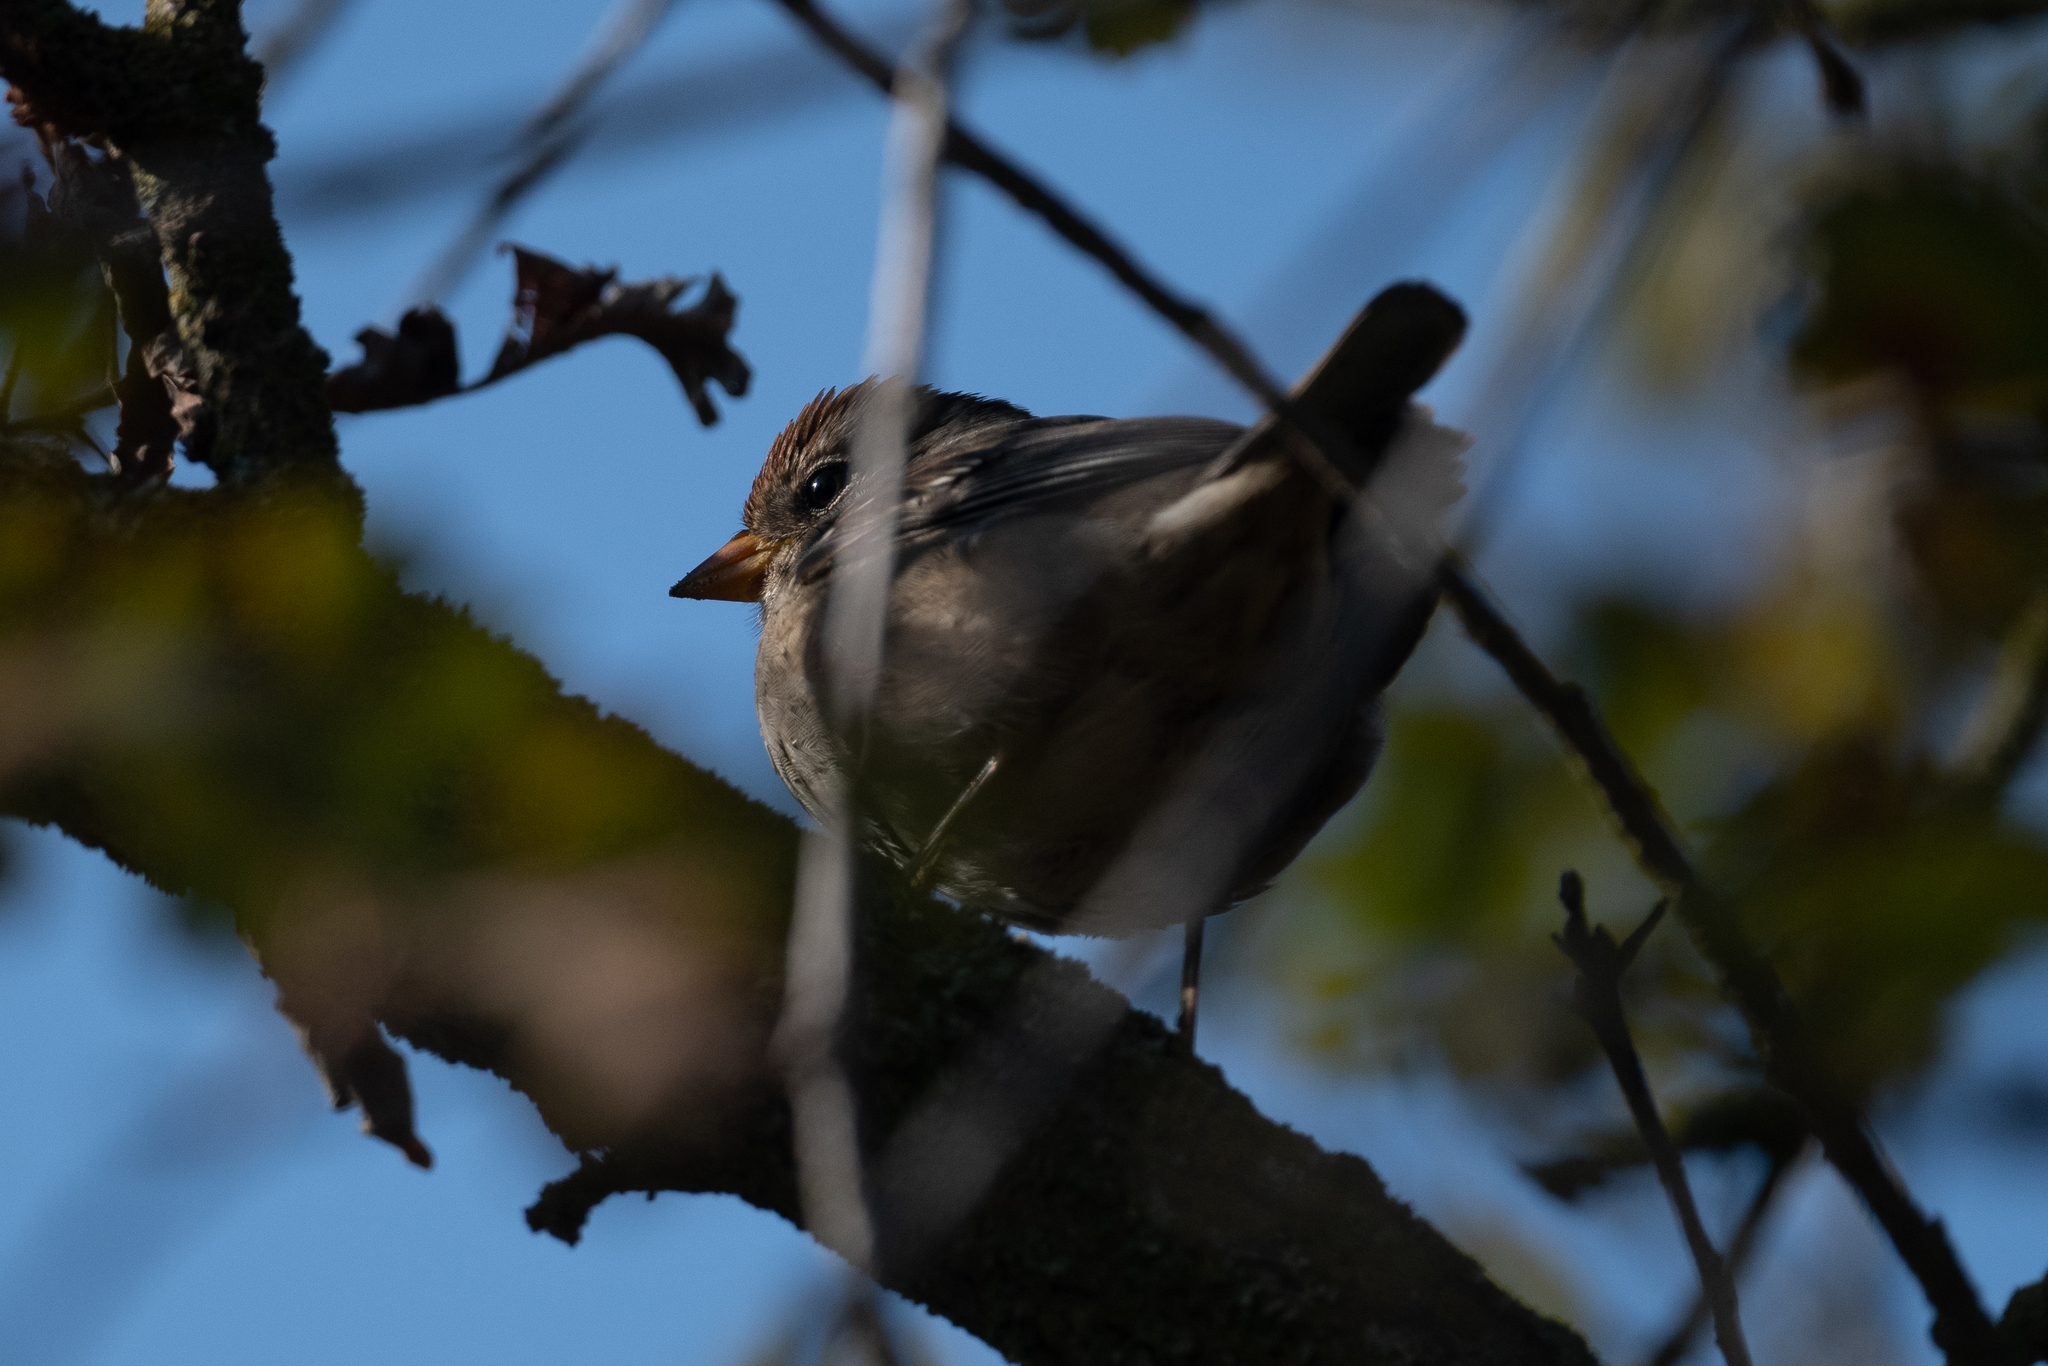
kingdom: Animalia
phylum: Chordata
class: Aves
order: Passeriformes
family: Passerellidae
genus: Zonotrichia
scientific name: Zonotrichia leucophrys
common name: White-crowned sparrow
